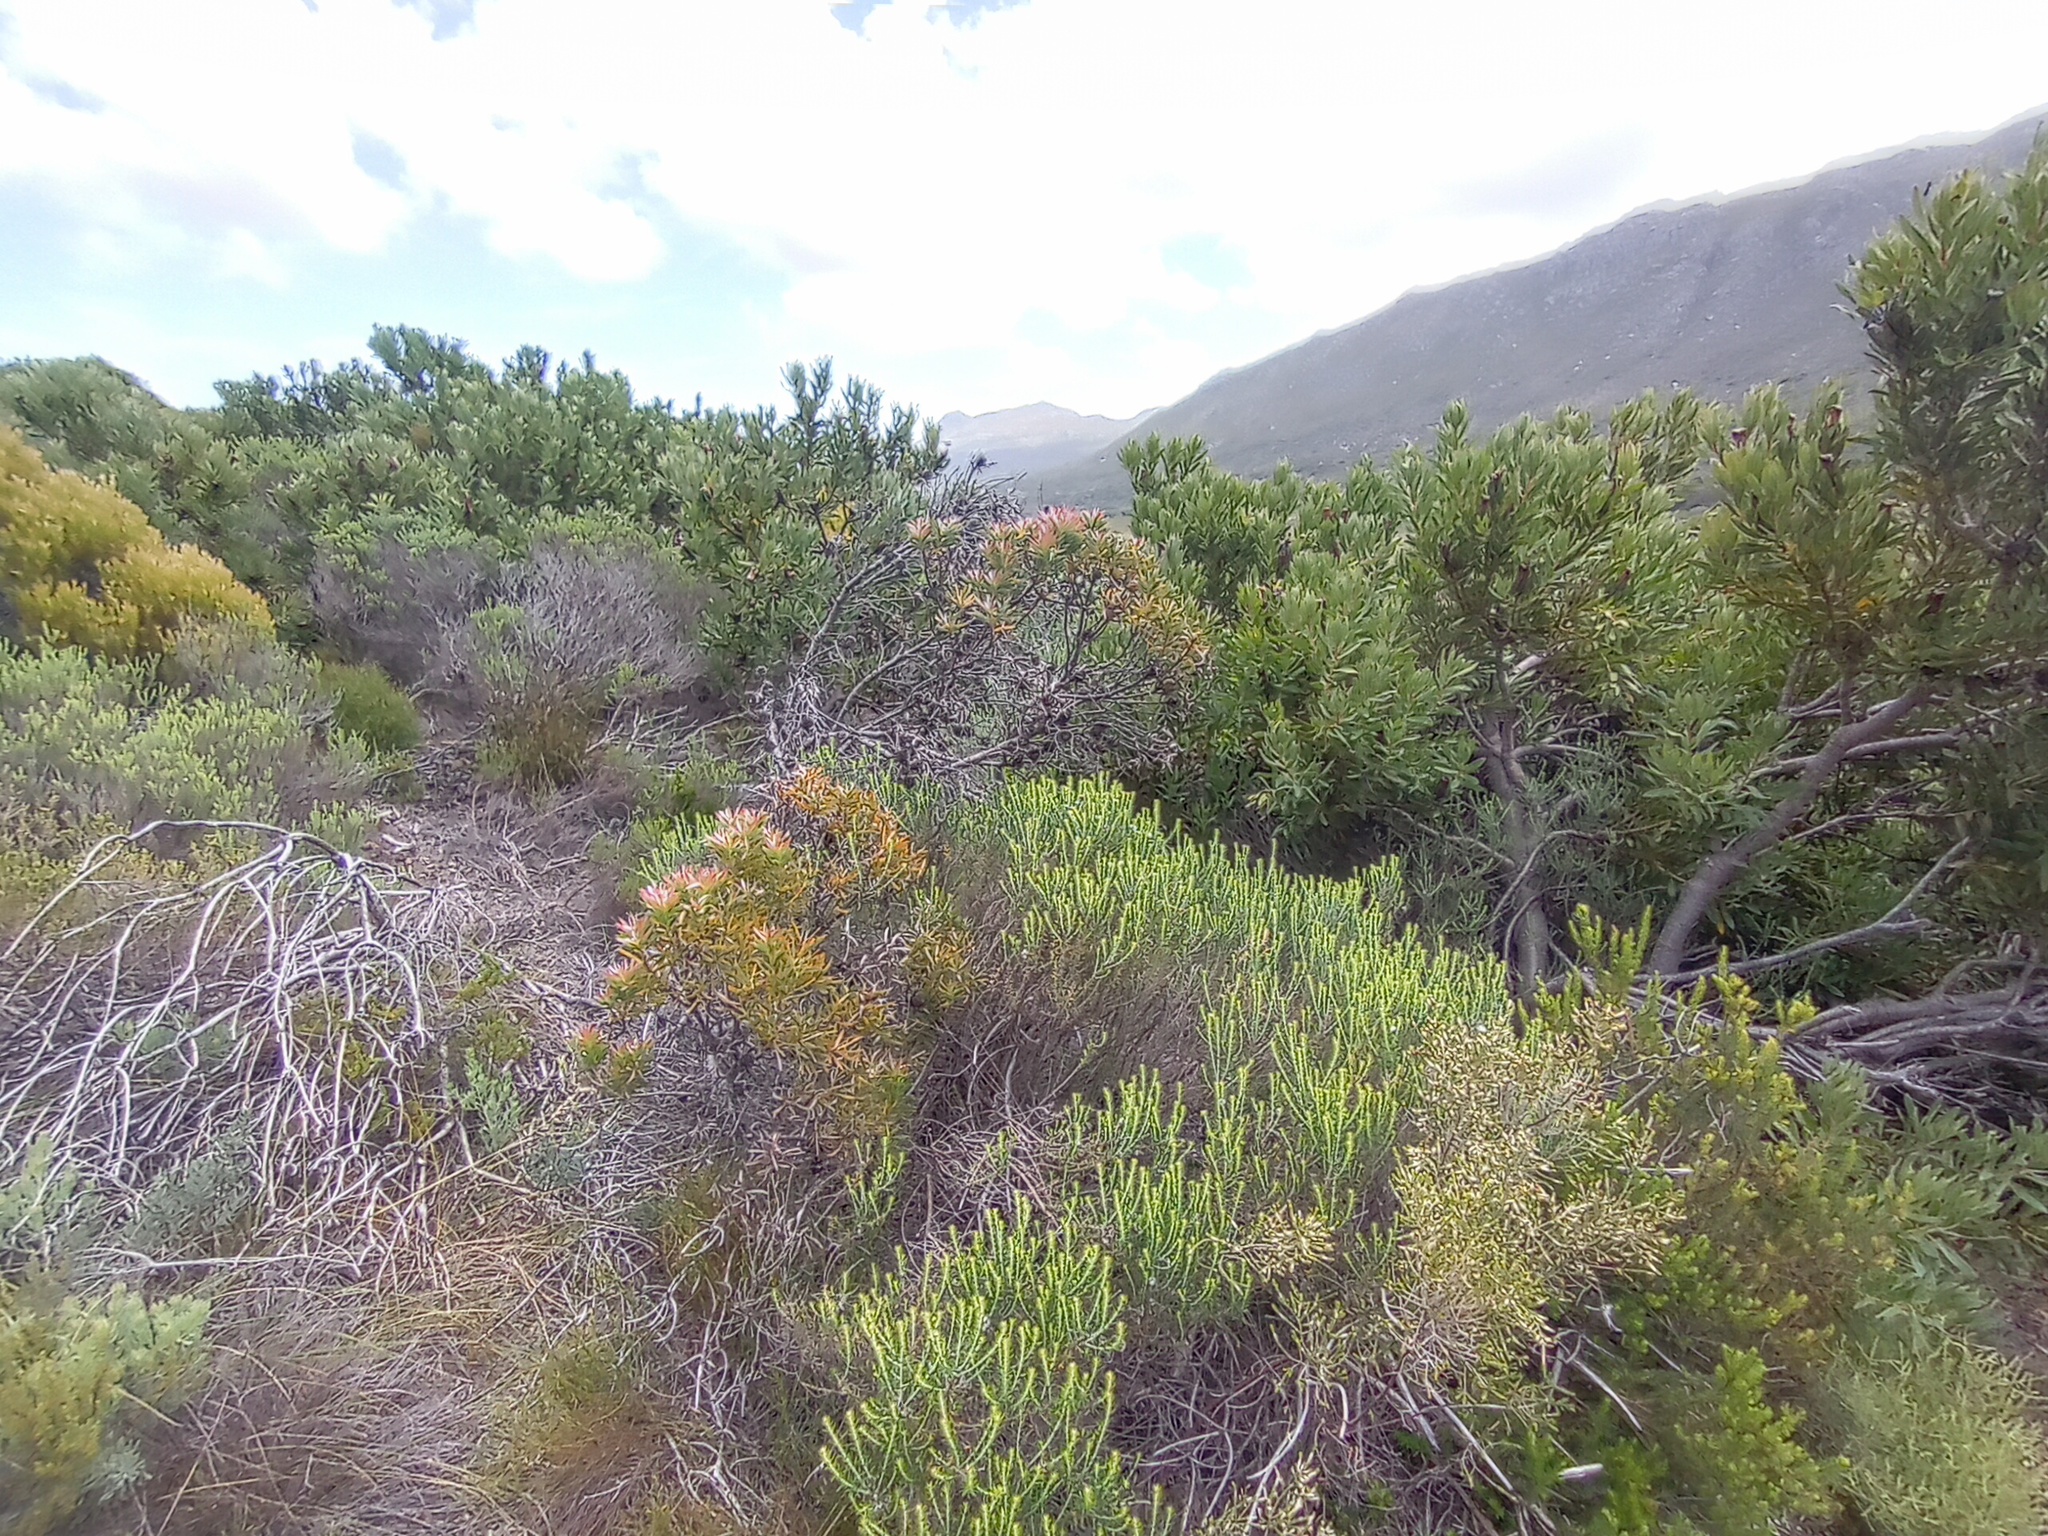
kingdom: Plantae
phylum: Tracheophyta
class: Magnoliopsida
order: Proteales
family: Proteaceae
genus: Leucadendron
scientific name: Leucadendron xanthoconus
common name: Sickle-leaf conebush
